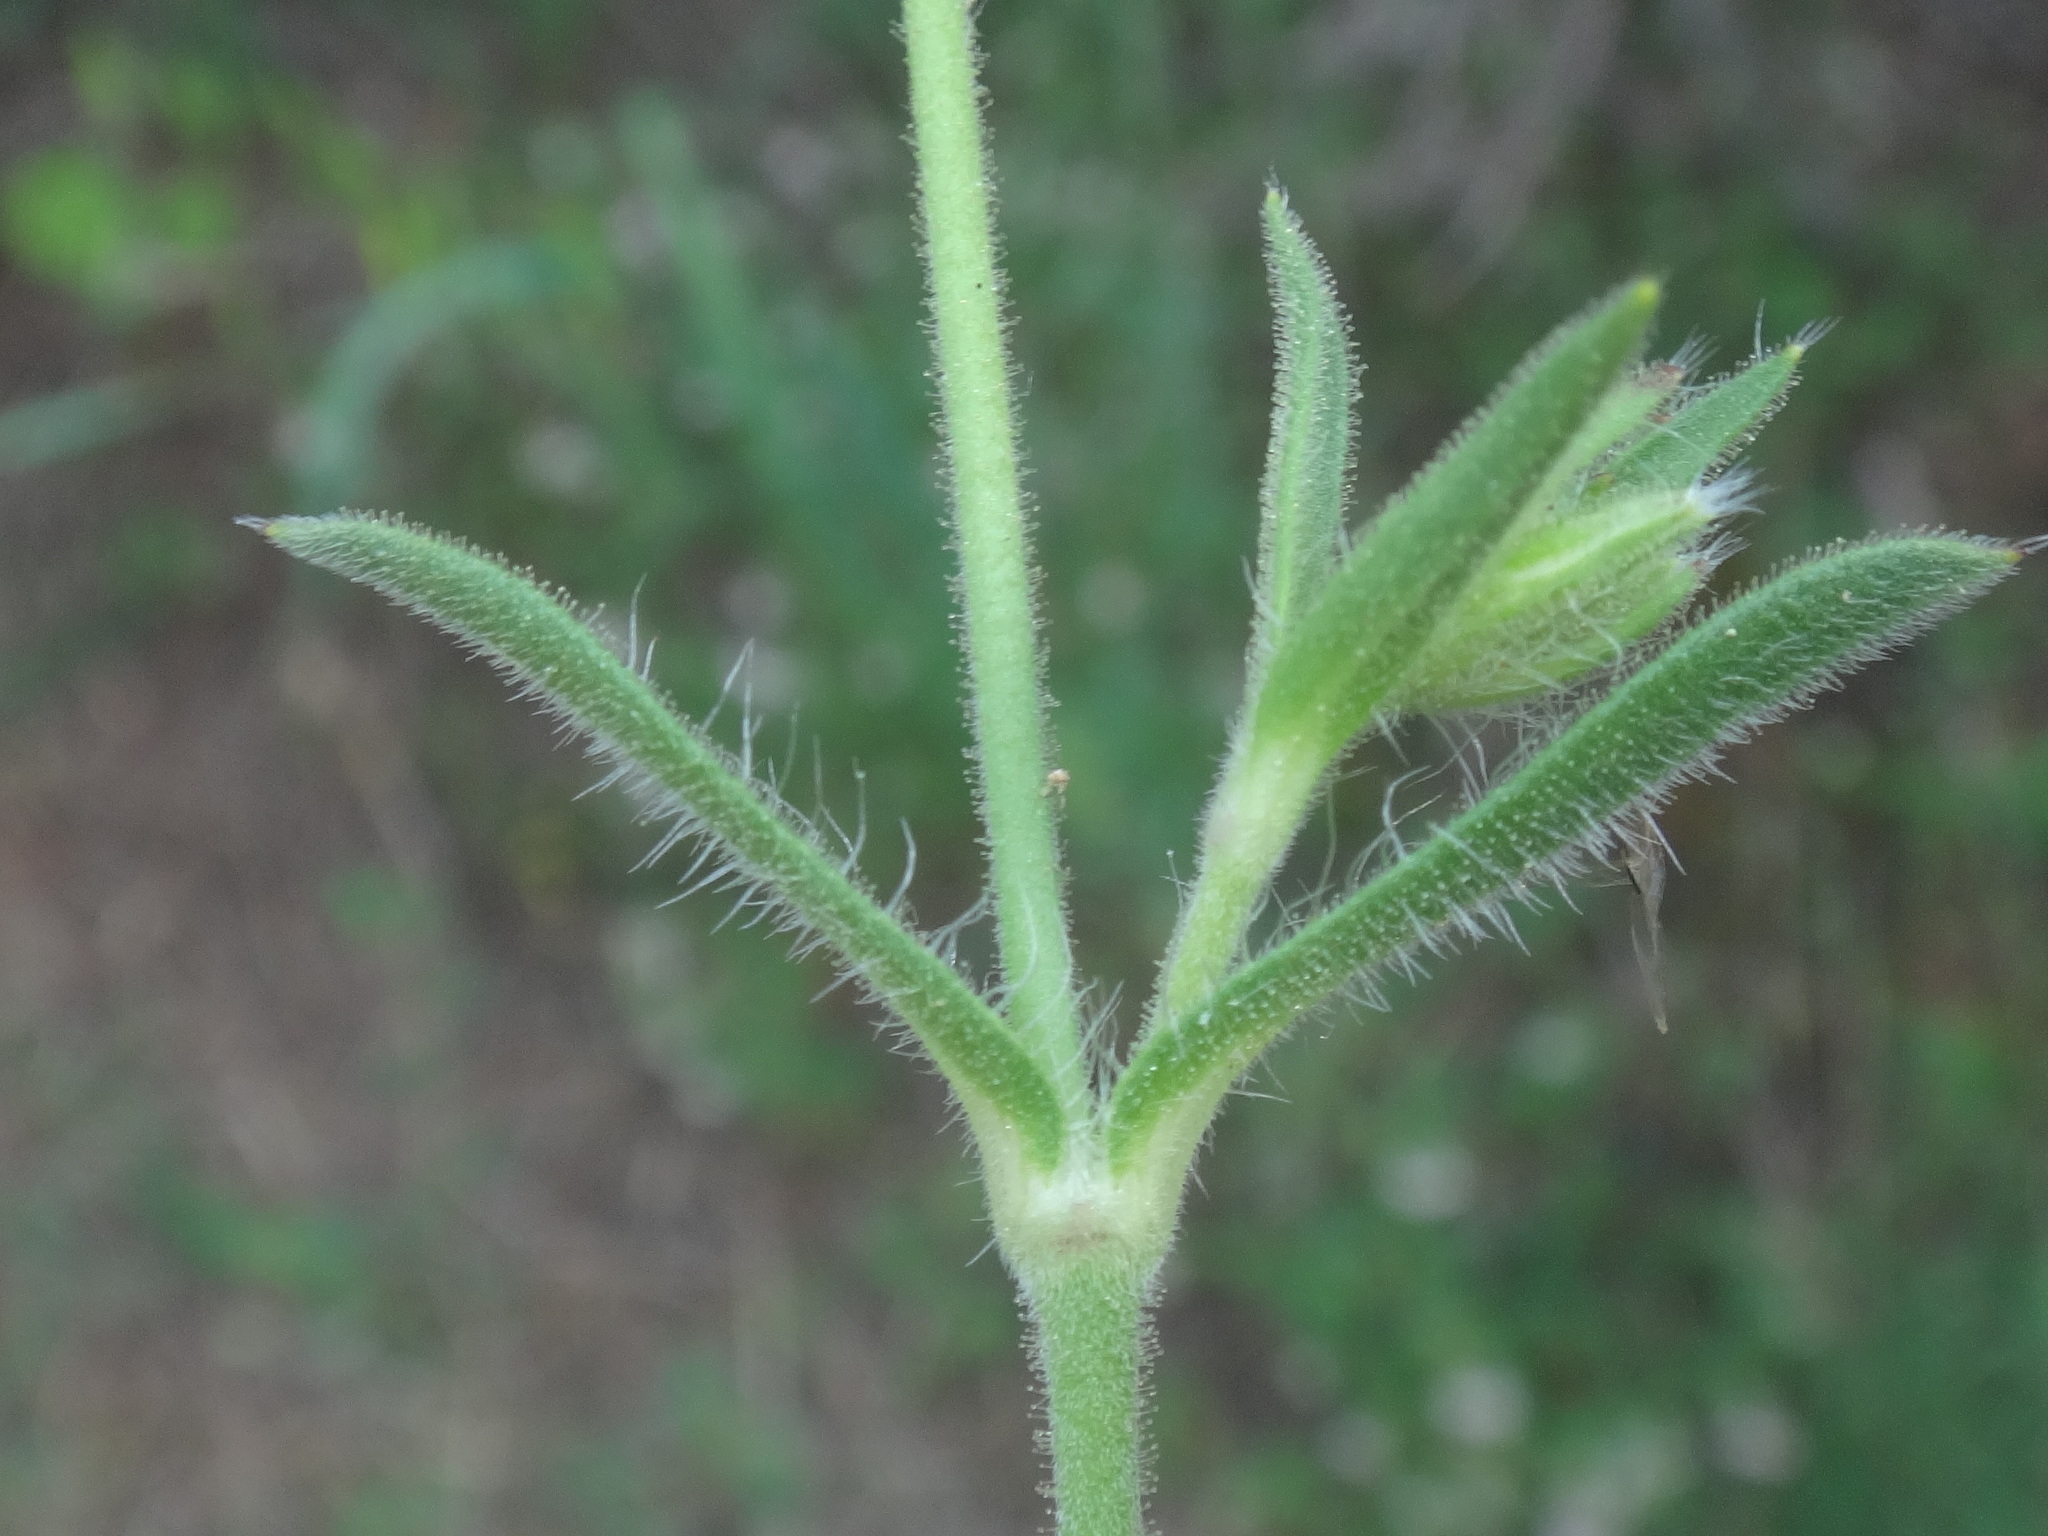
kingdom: Plantae
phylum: Tracheophyta
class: Magnoliopsida
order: Caryophyllales
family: Caryophyllaceae
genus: Silene
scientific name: Silene gallica
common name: Small-flowered catchfly
